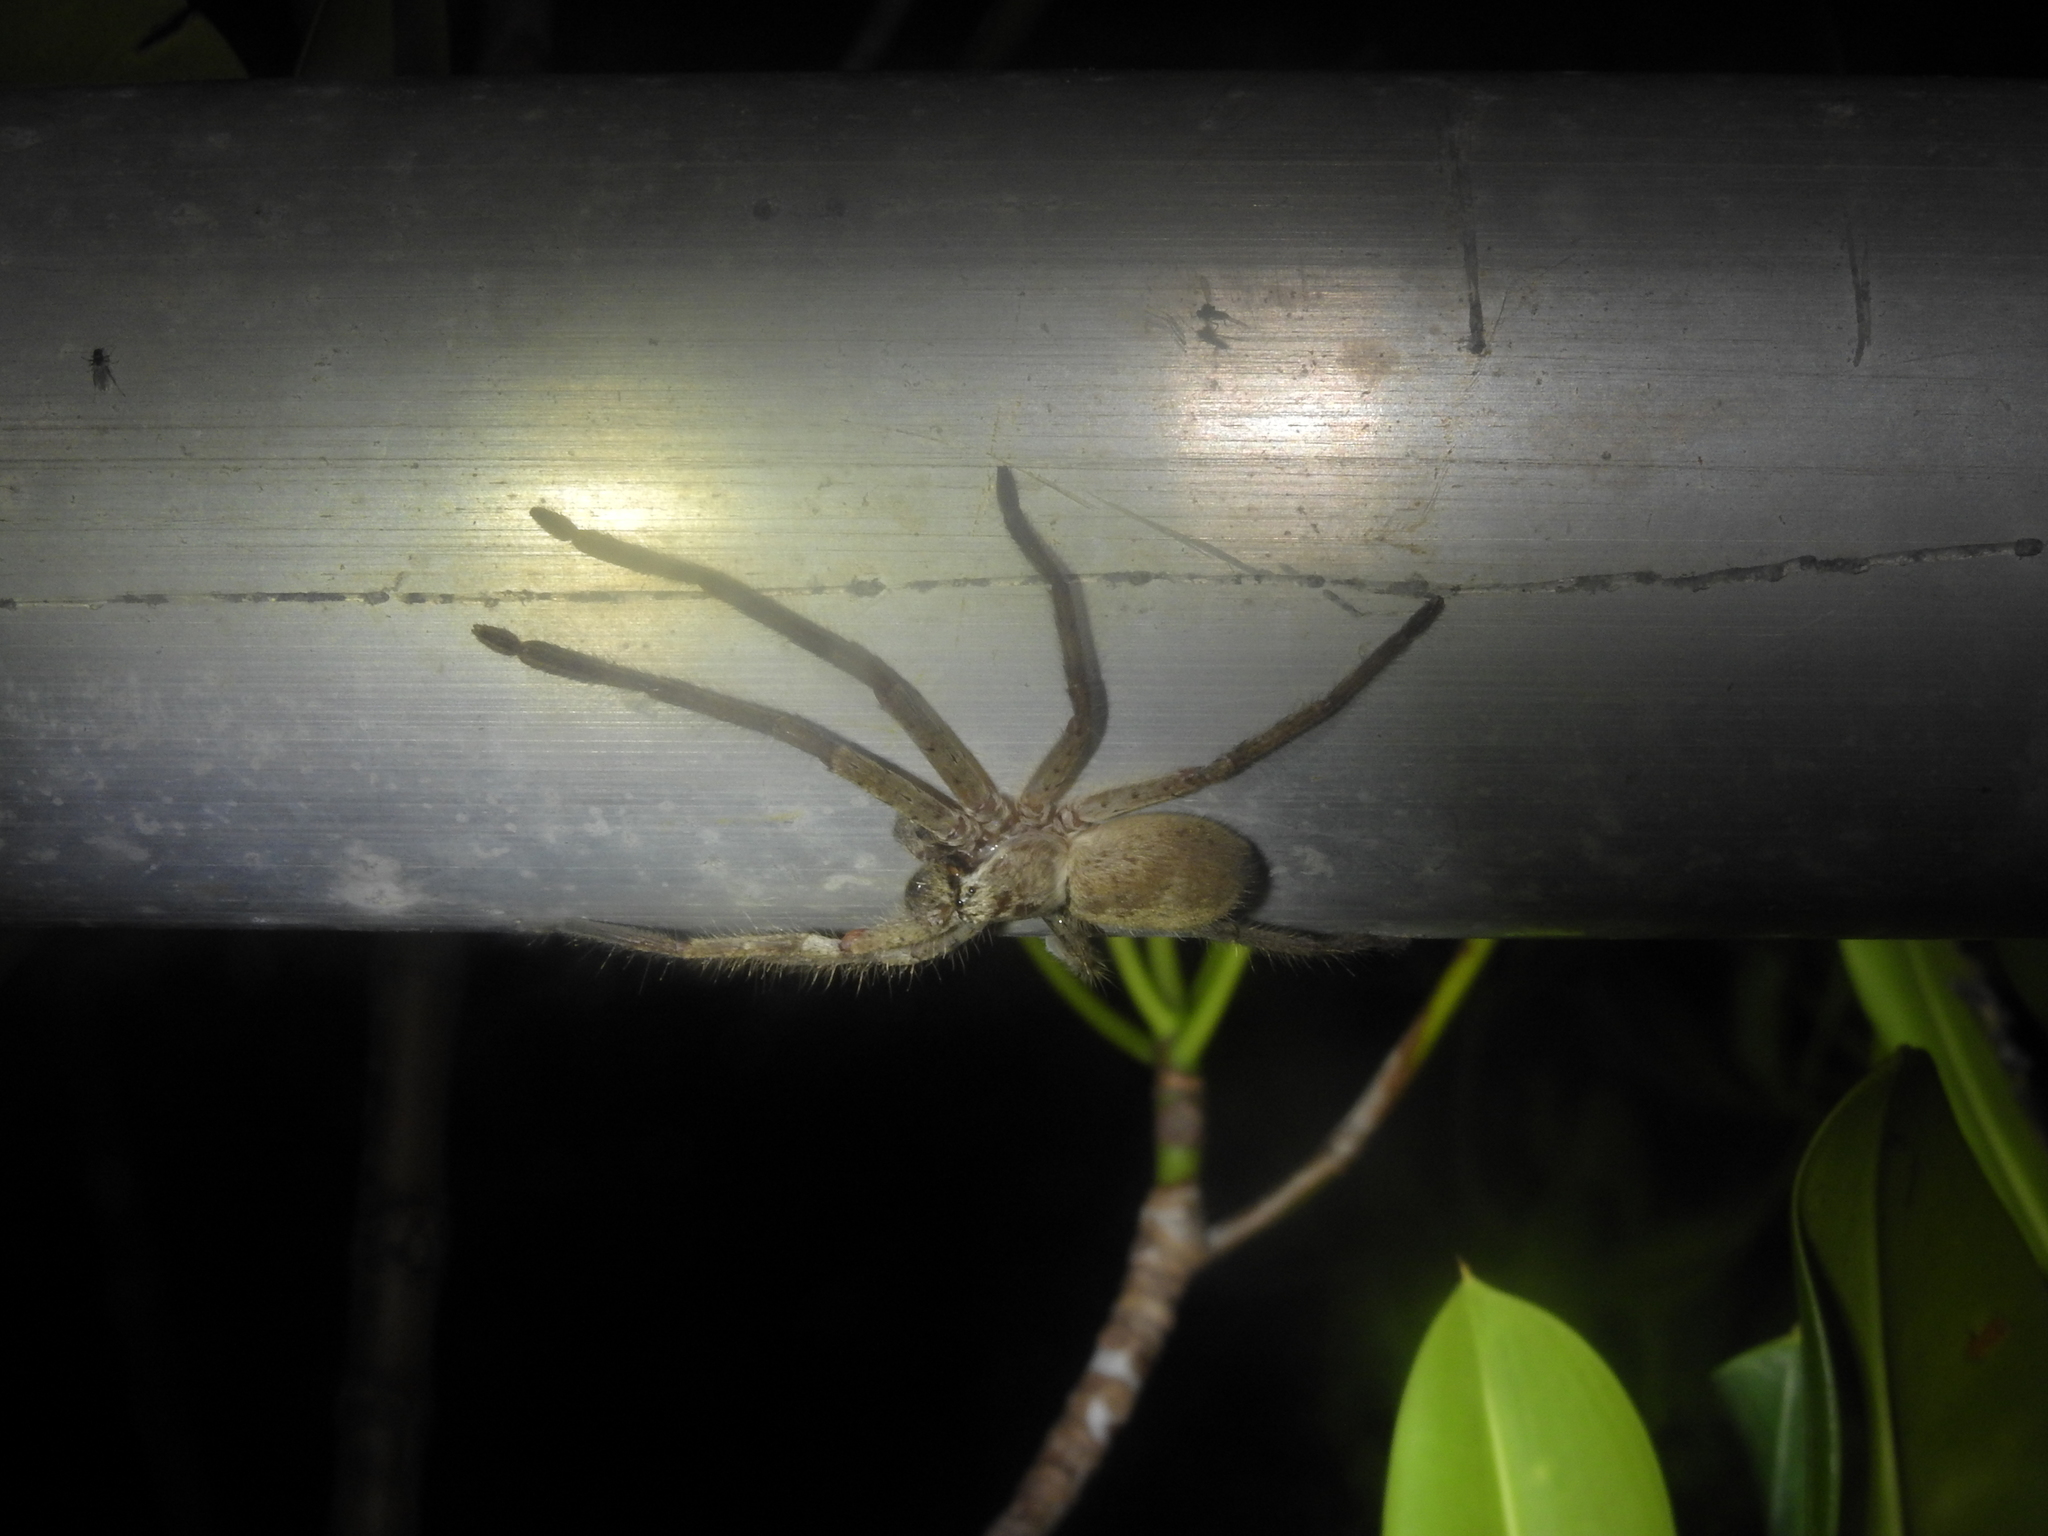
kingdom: Animalia
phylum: Arthropoda
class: Arachnida
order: Araneae
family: Sparassidae
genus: Isopedella
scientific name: Isopedella meraukensis
